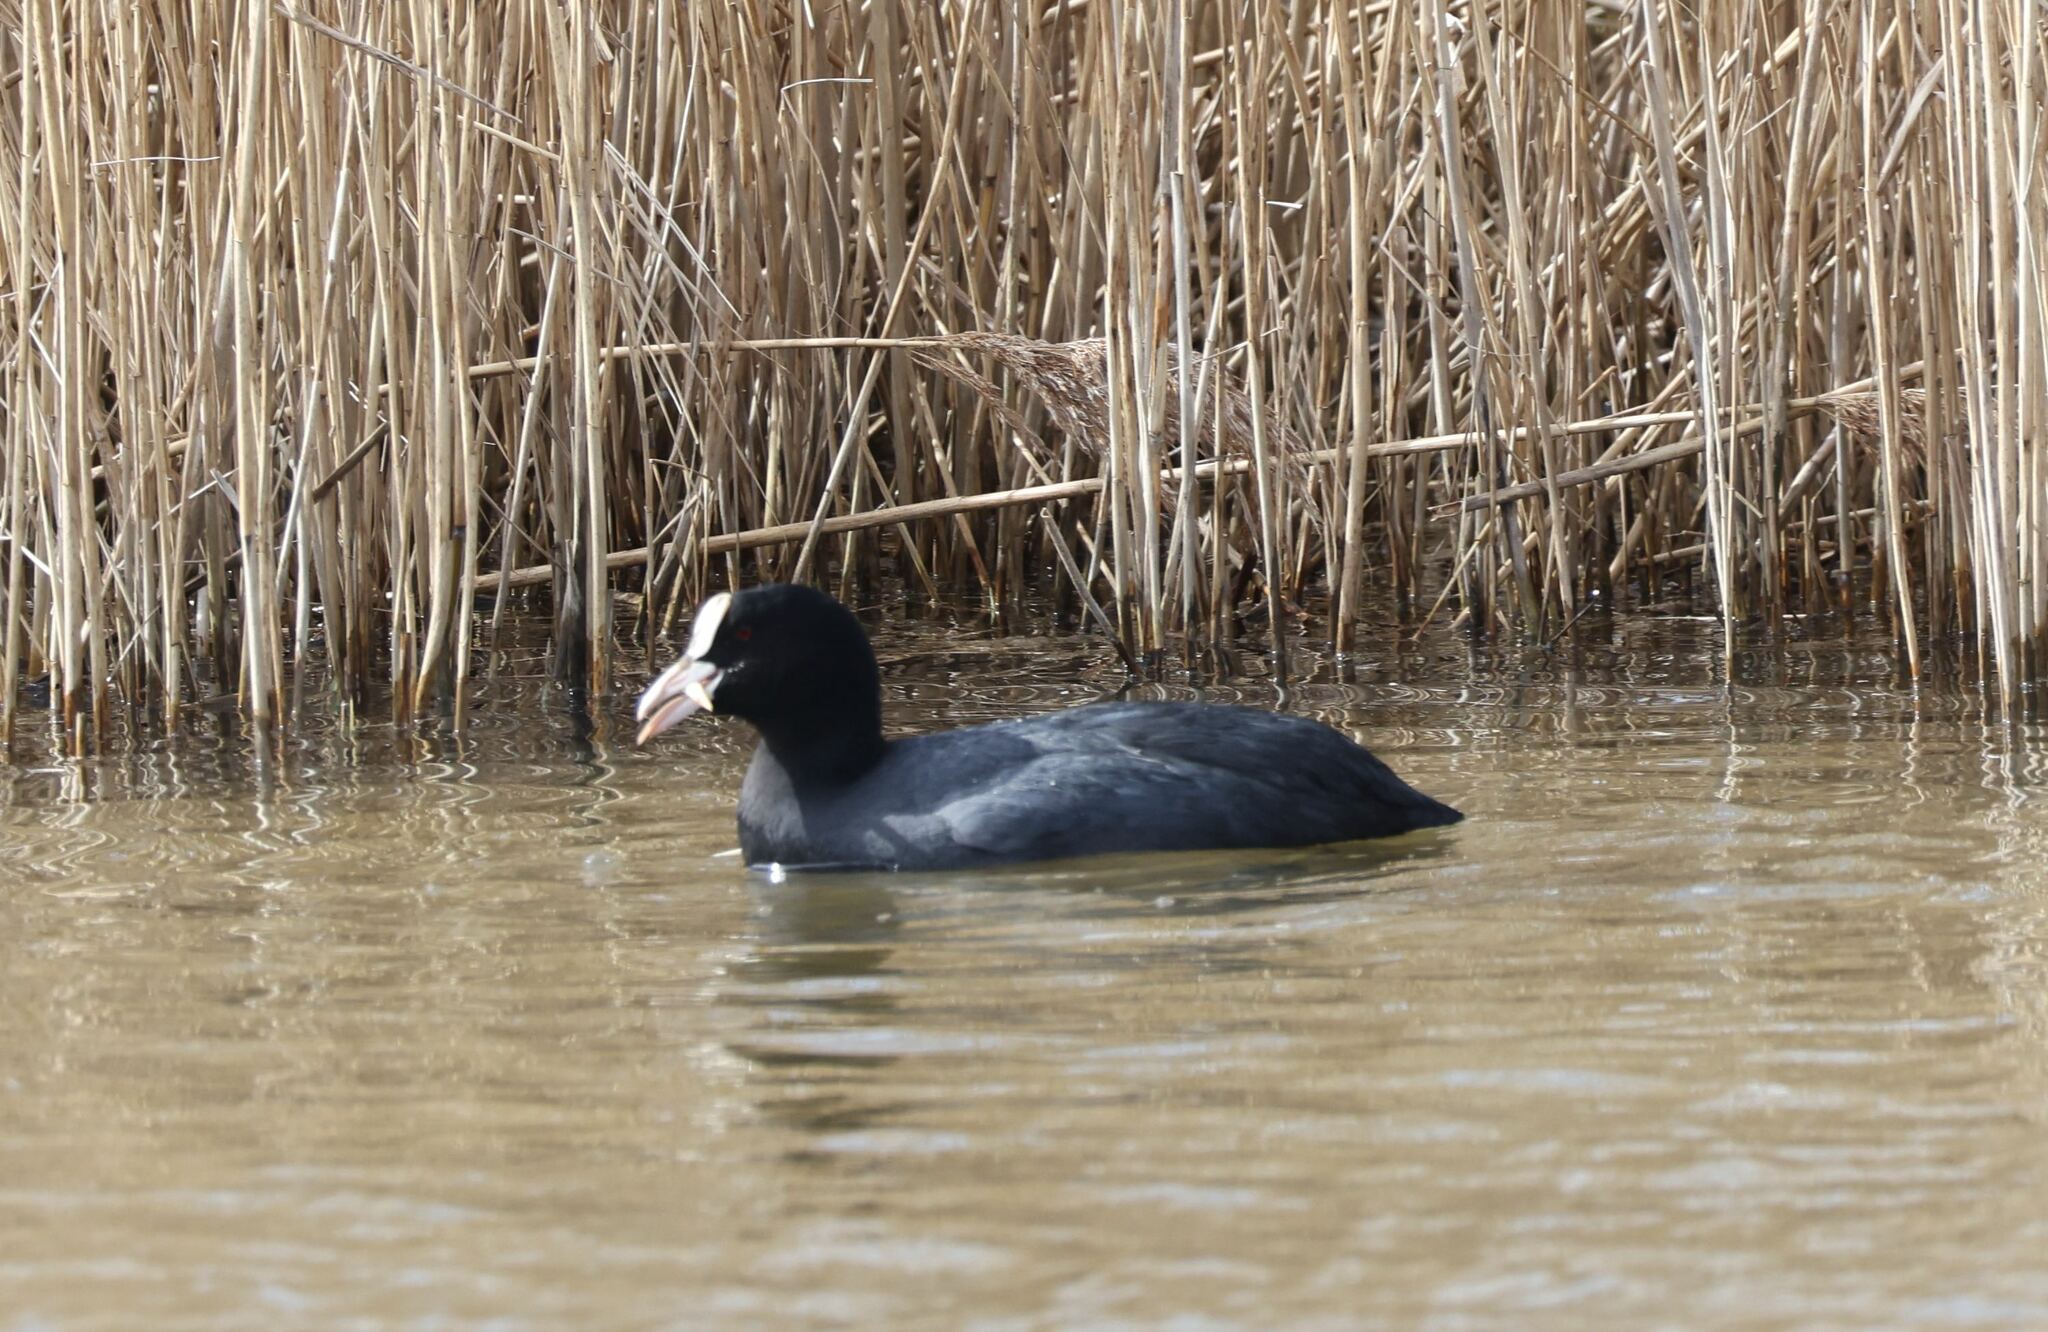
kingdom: Animalia
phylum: Chordata
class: Aves
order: Gruiformes
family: Rallidae
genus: Fulica
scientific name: Fulica atra
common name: Eurasian coot
